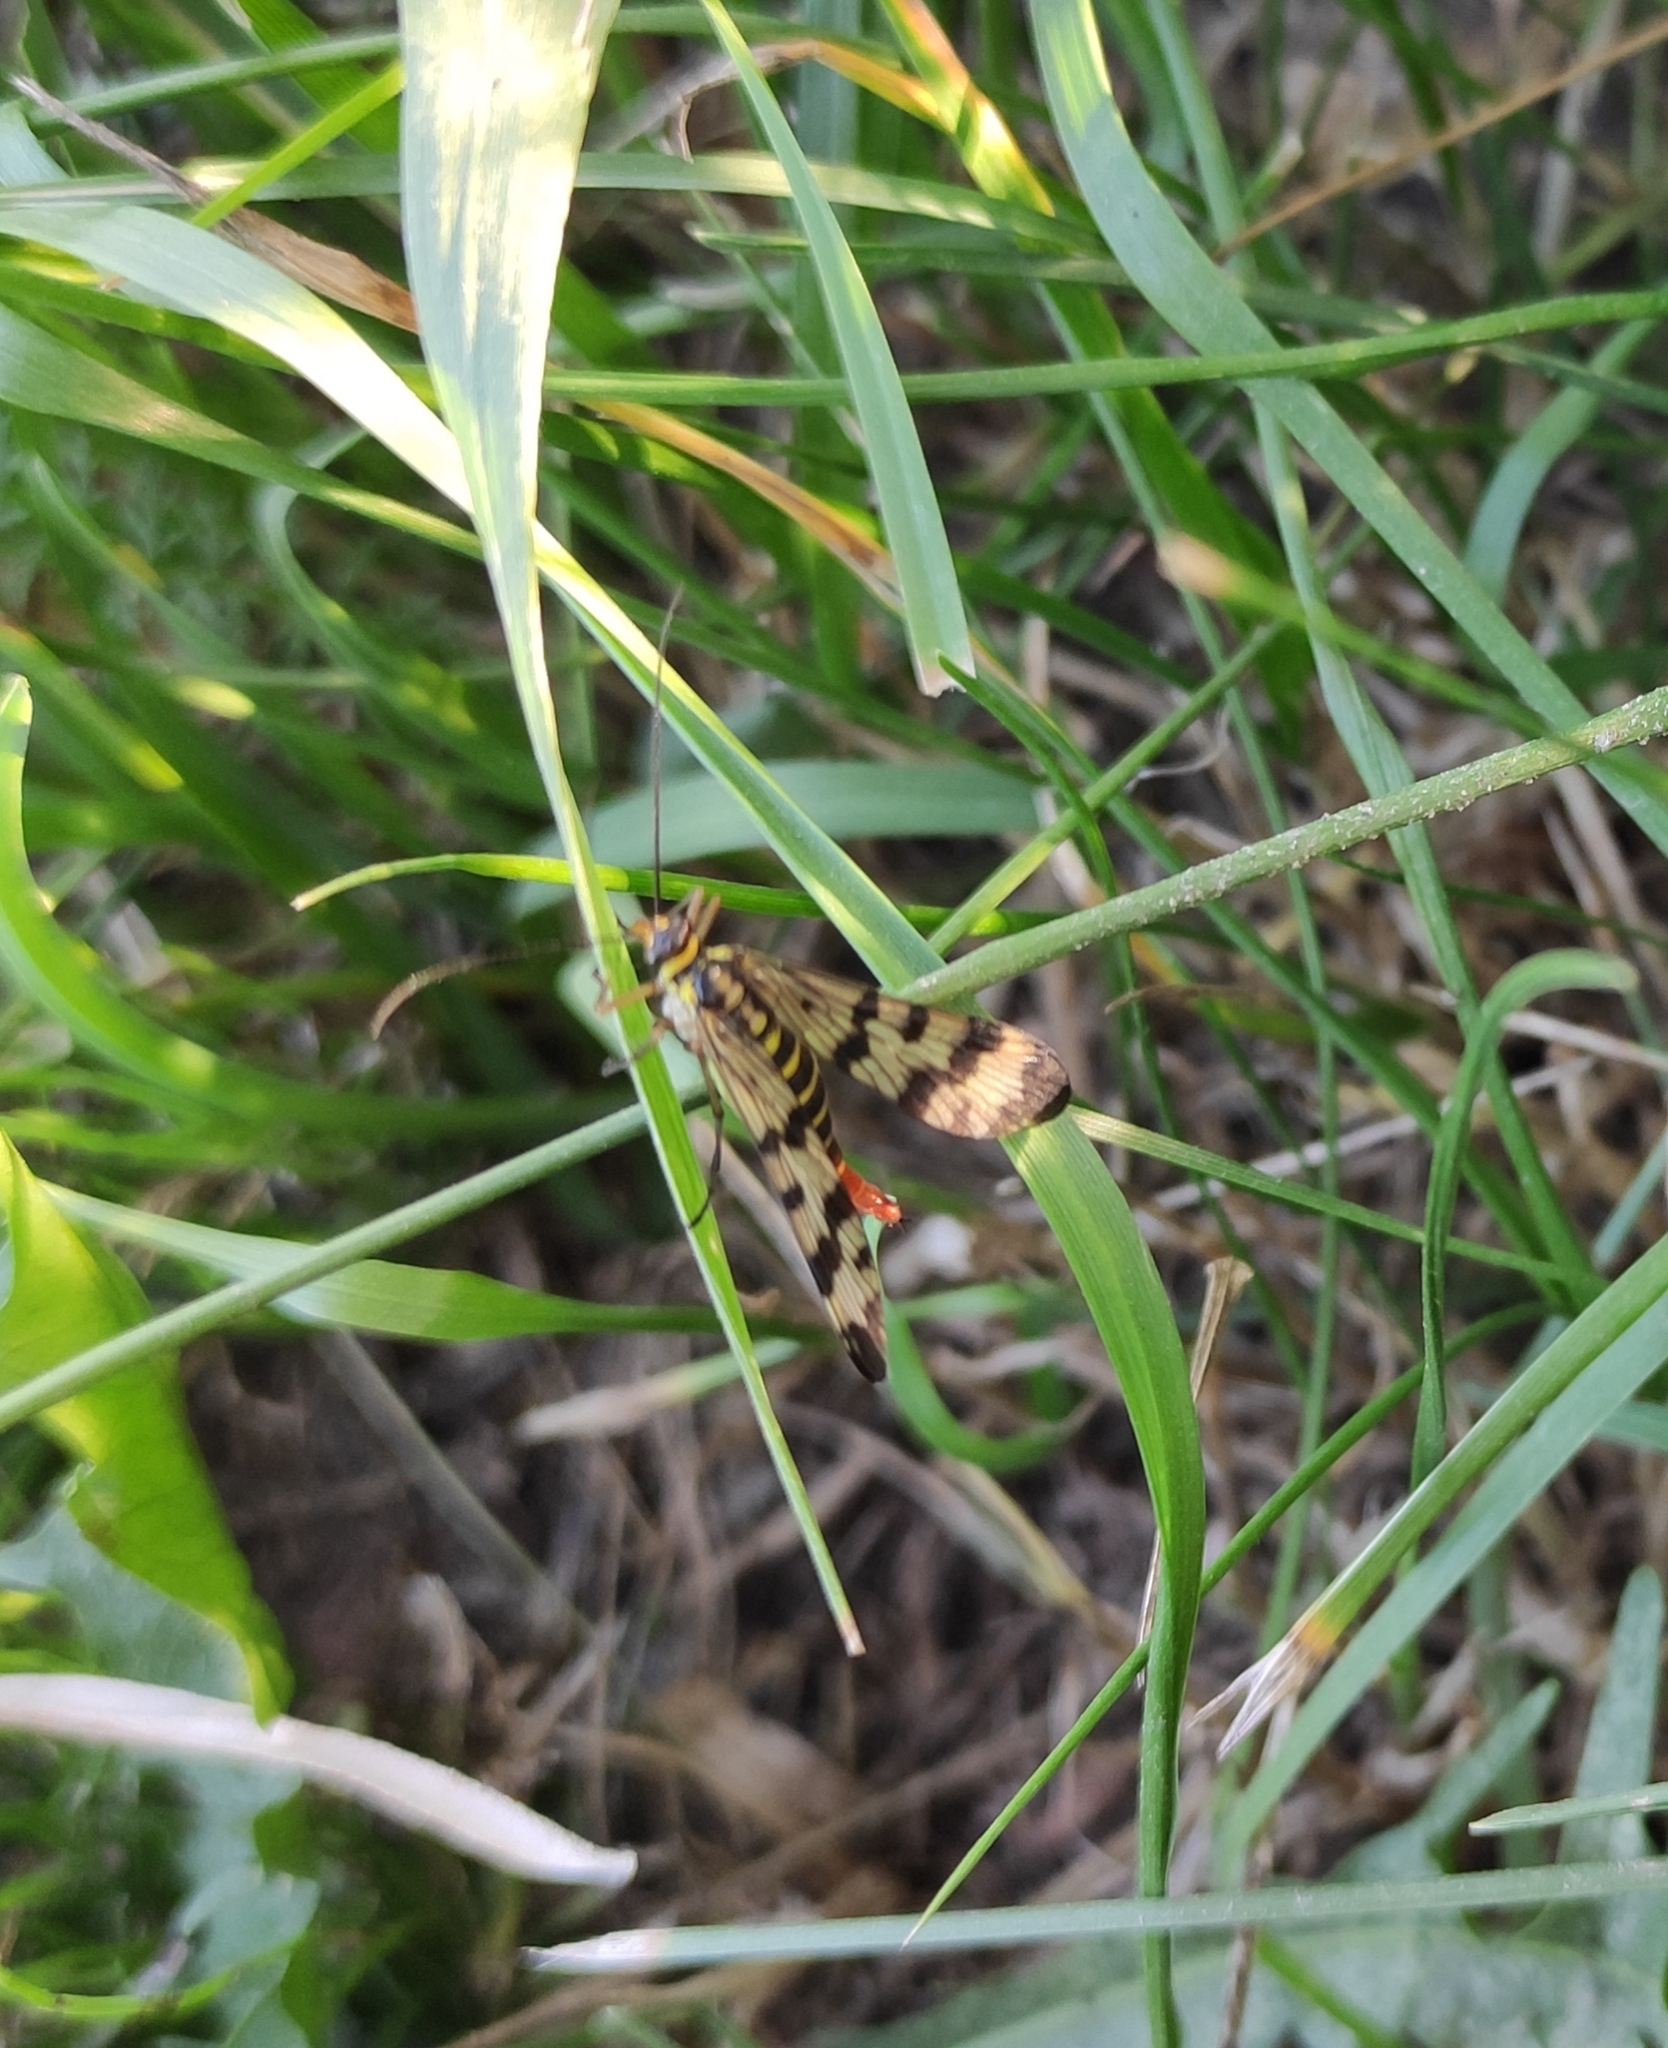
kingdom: Animalia
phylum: Arthropoda
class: Insecta
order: Mecoptera
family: Panorpidae
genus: Panorpa
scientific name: Panorpa communis
